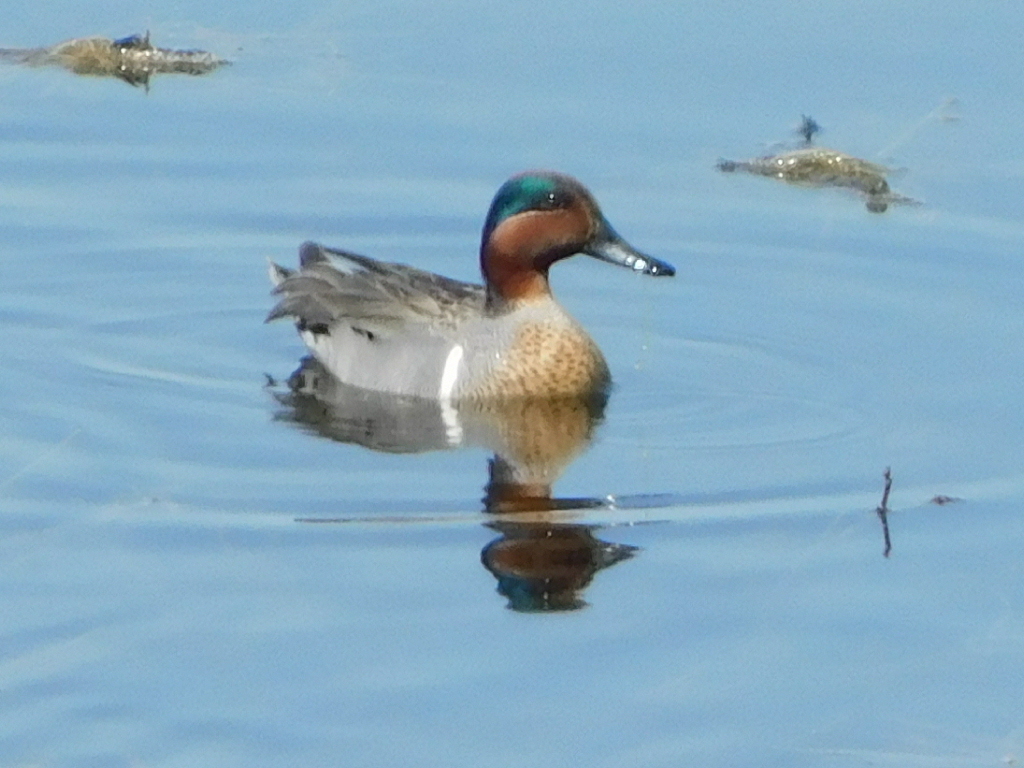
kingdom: Animalia
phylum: Chordata
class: Aves
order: Anseriformes
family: Anatidae
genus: Anas
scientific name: Anas crecca
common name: Eurasian teal
